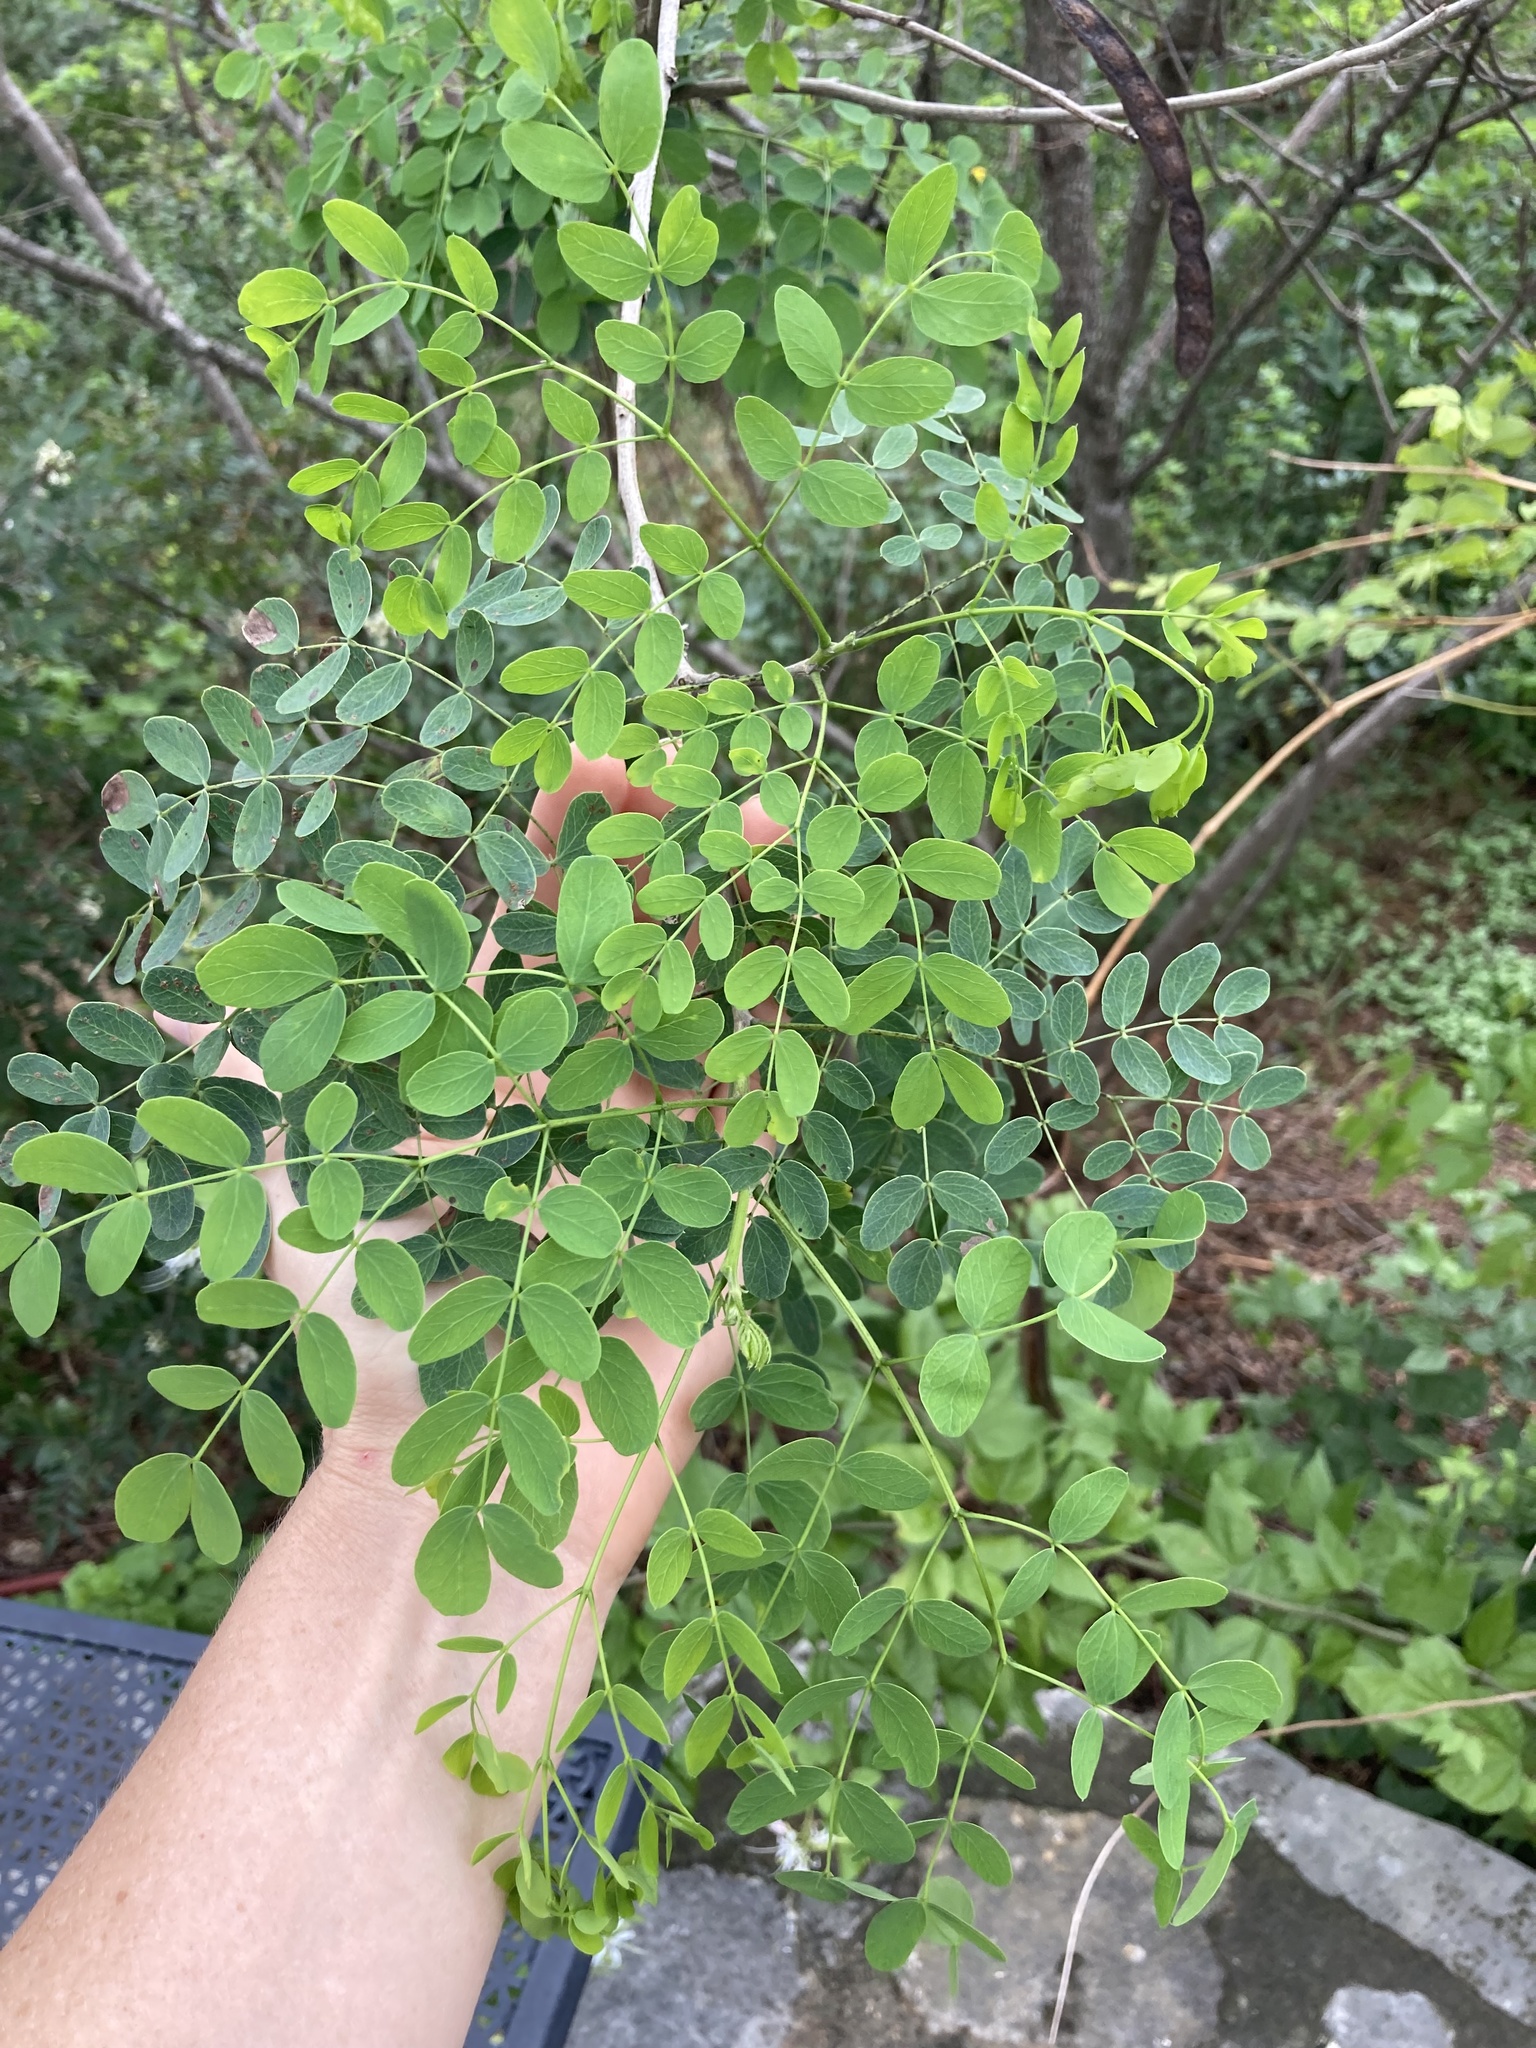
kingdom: Plantae
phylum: Tracheophyta
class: Magnoliopsida
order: Fabales
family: Fabaceae
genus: Leucaena
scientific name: Leucaena retusa
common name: Littleleaf leadtree
